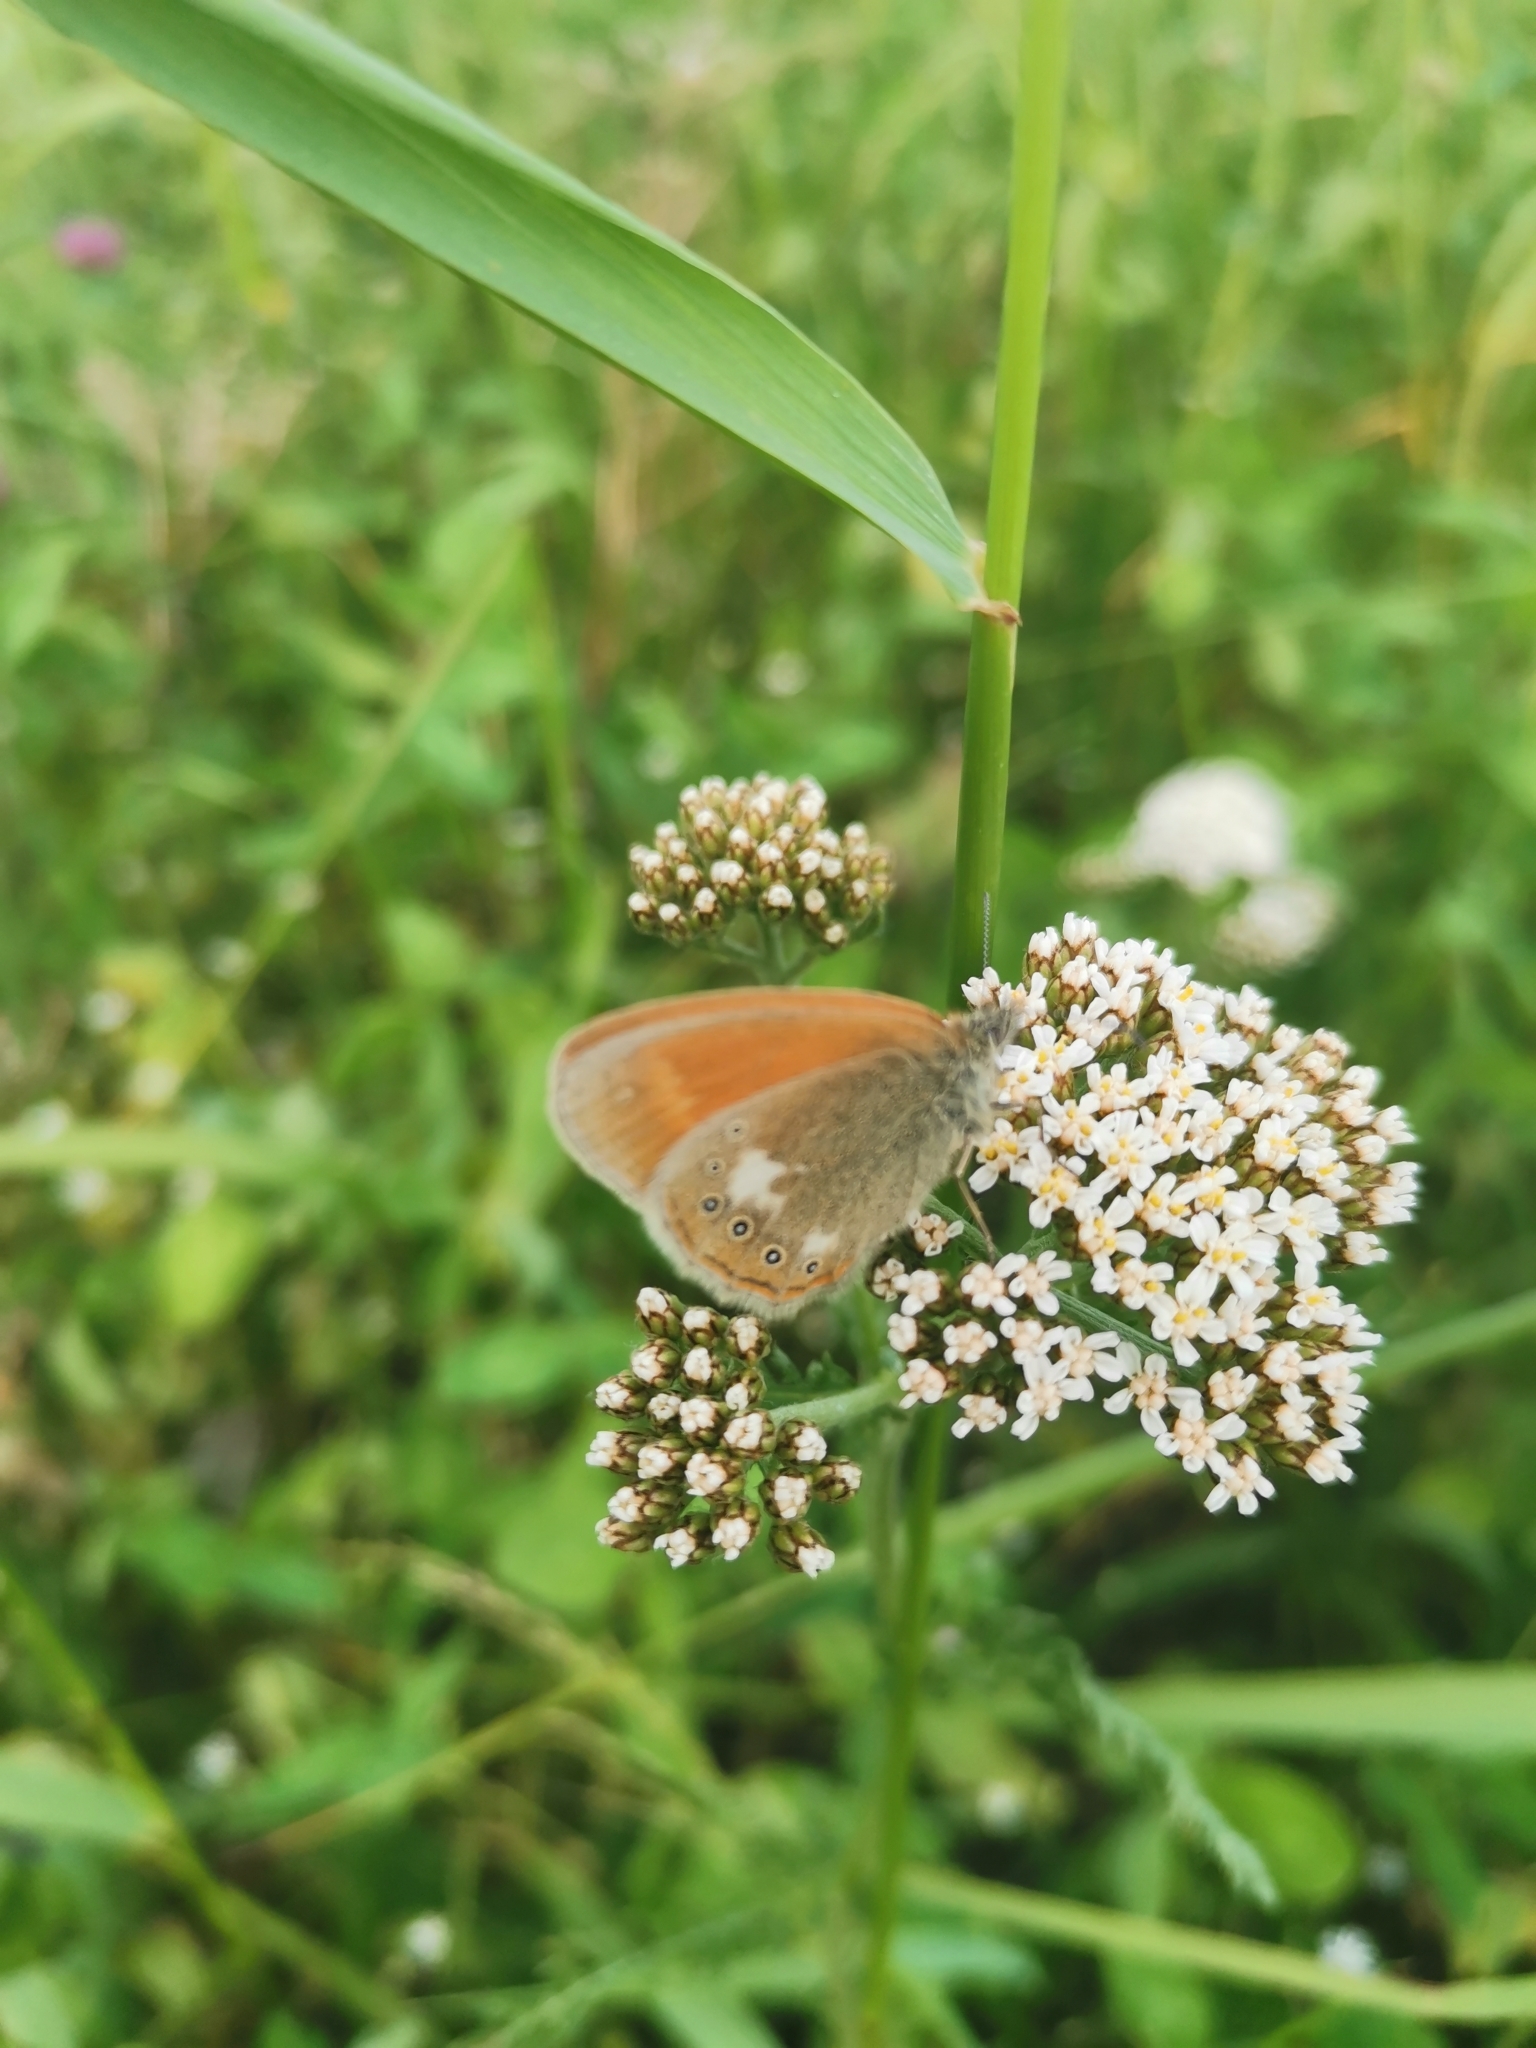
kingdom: Animalia
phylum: Arthropoda
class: Insecta
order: Lepidoptera
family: Nymphalidae
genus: Coenonympha
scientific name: Coenonympha iphis
